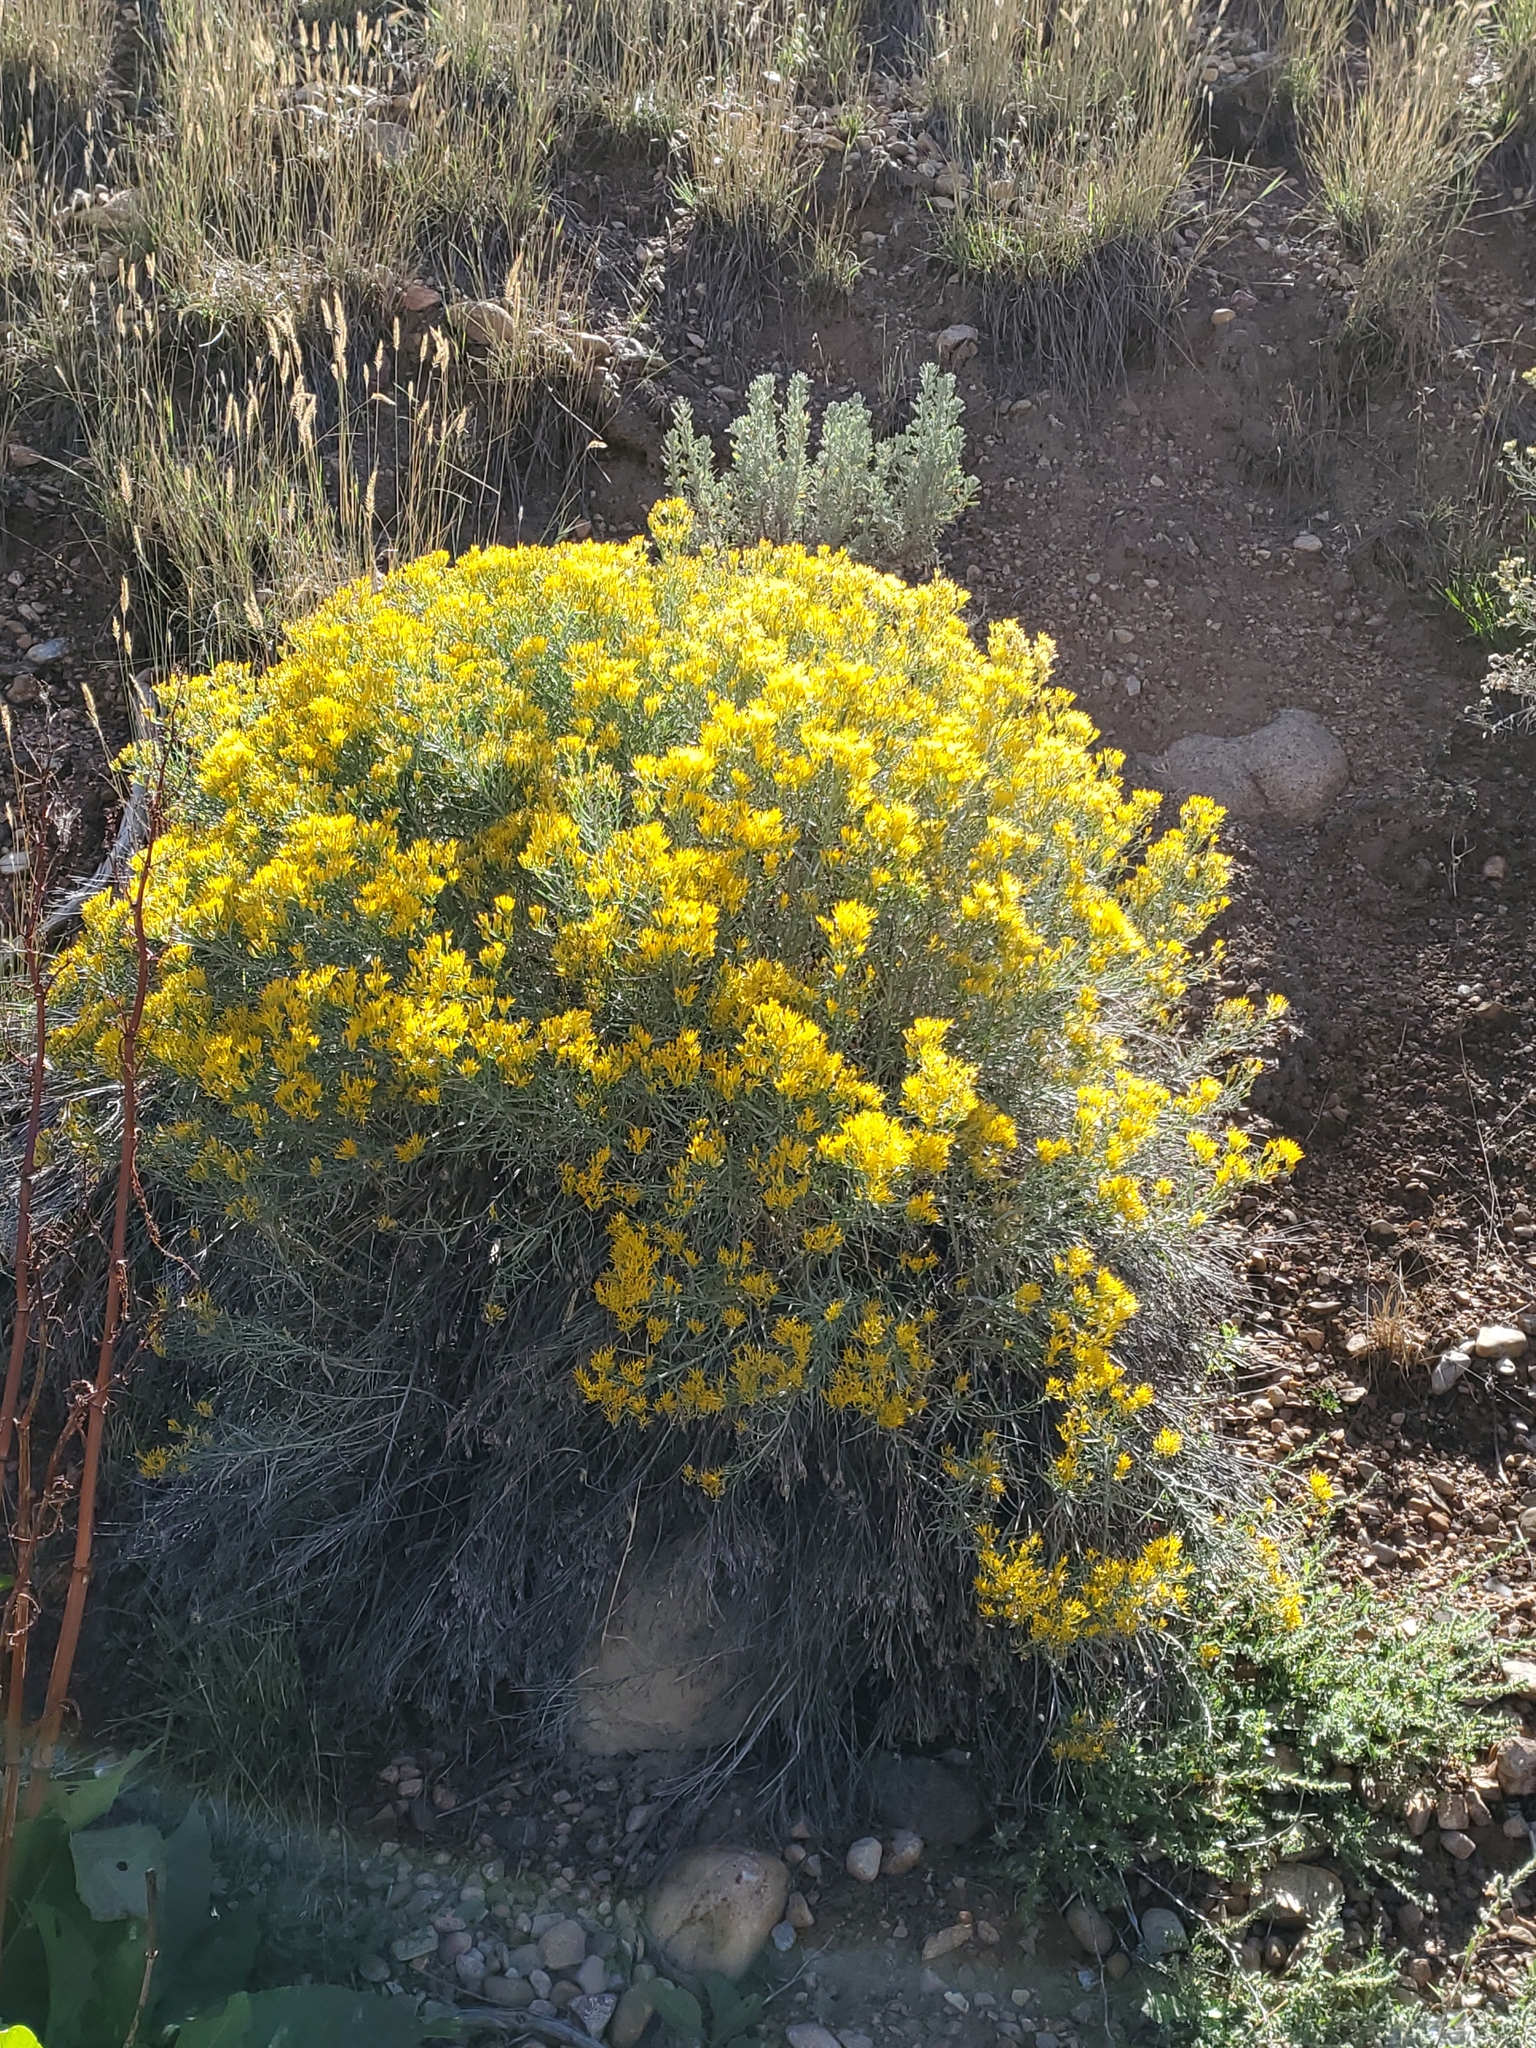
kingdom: Plantae
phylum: Tracheophyta
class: Magnoliopsida
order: Asterales
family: Asteraceae
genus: Ericameria
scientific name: Ericameria nauseosa
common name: Rubber rabbitbrush
